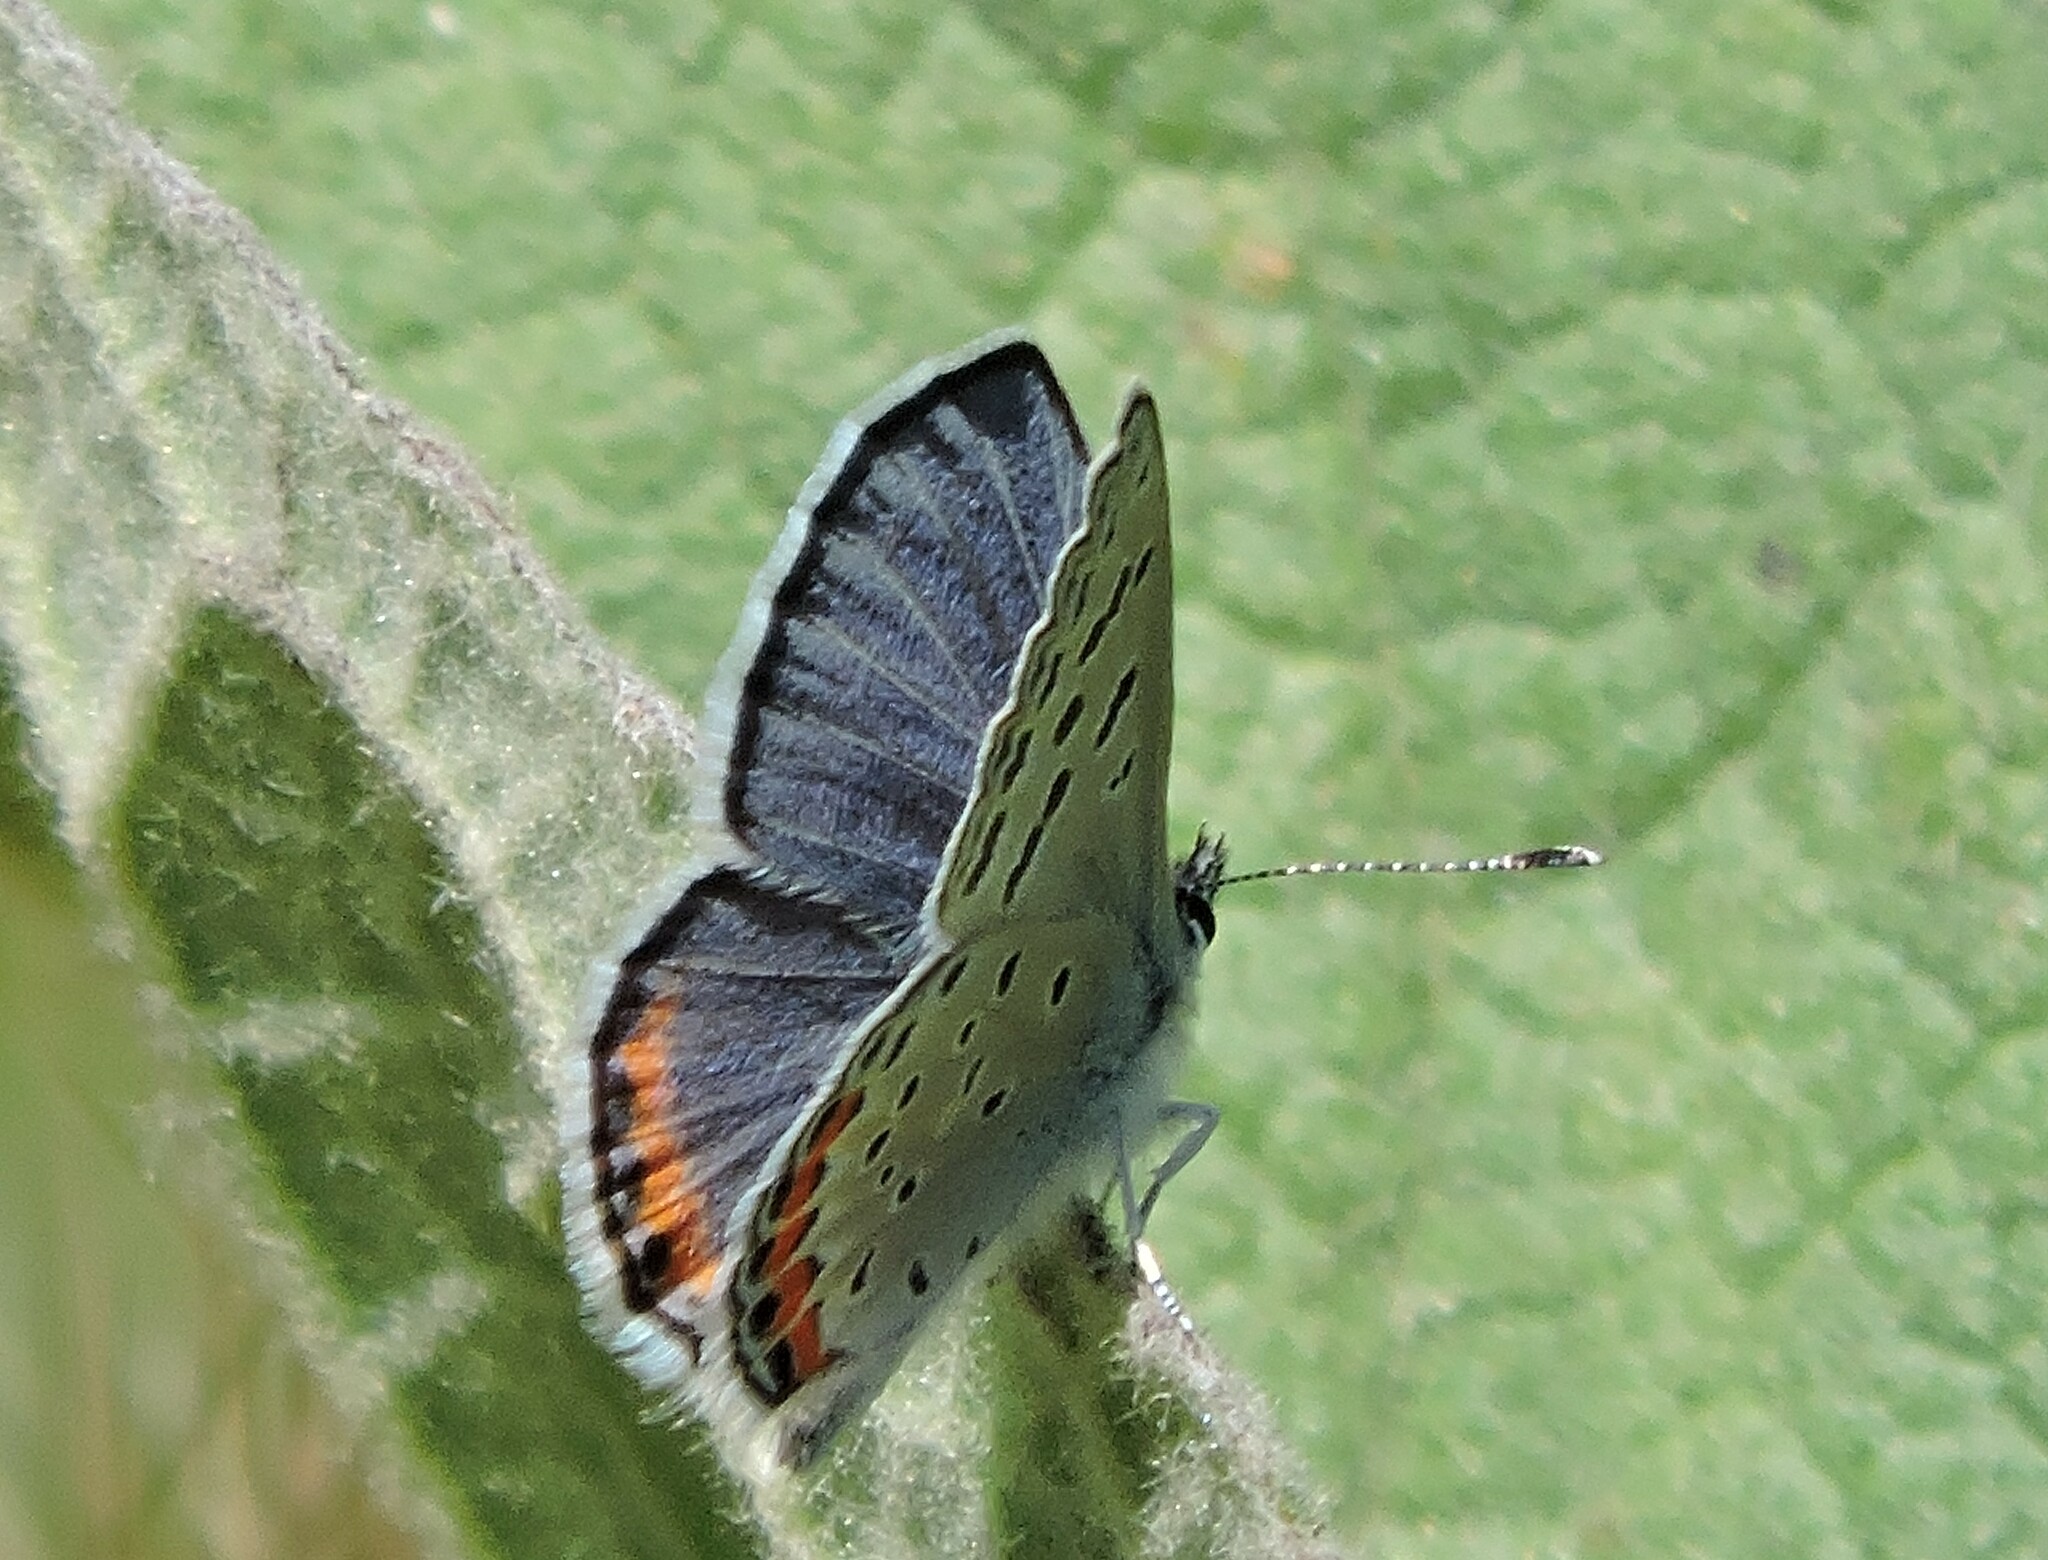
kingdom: Animalia
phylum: Arthropoda
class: Insecta
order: Lepidoptera
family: Lycaenidae
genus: Icaricia
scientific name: Icaricia acmon
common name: Acmon blue
